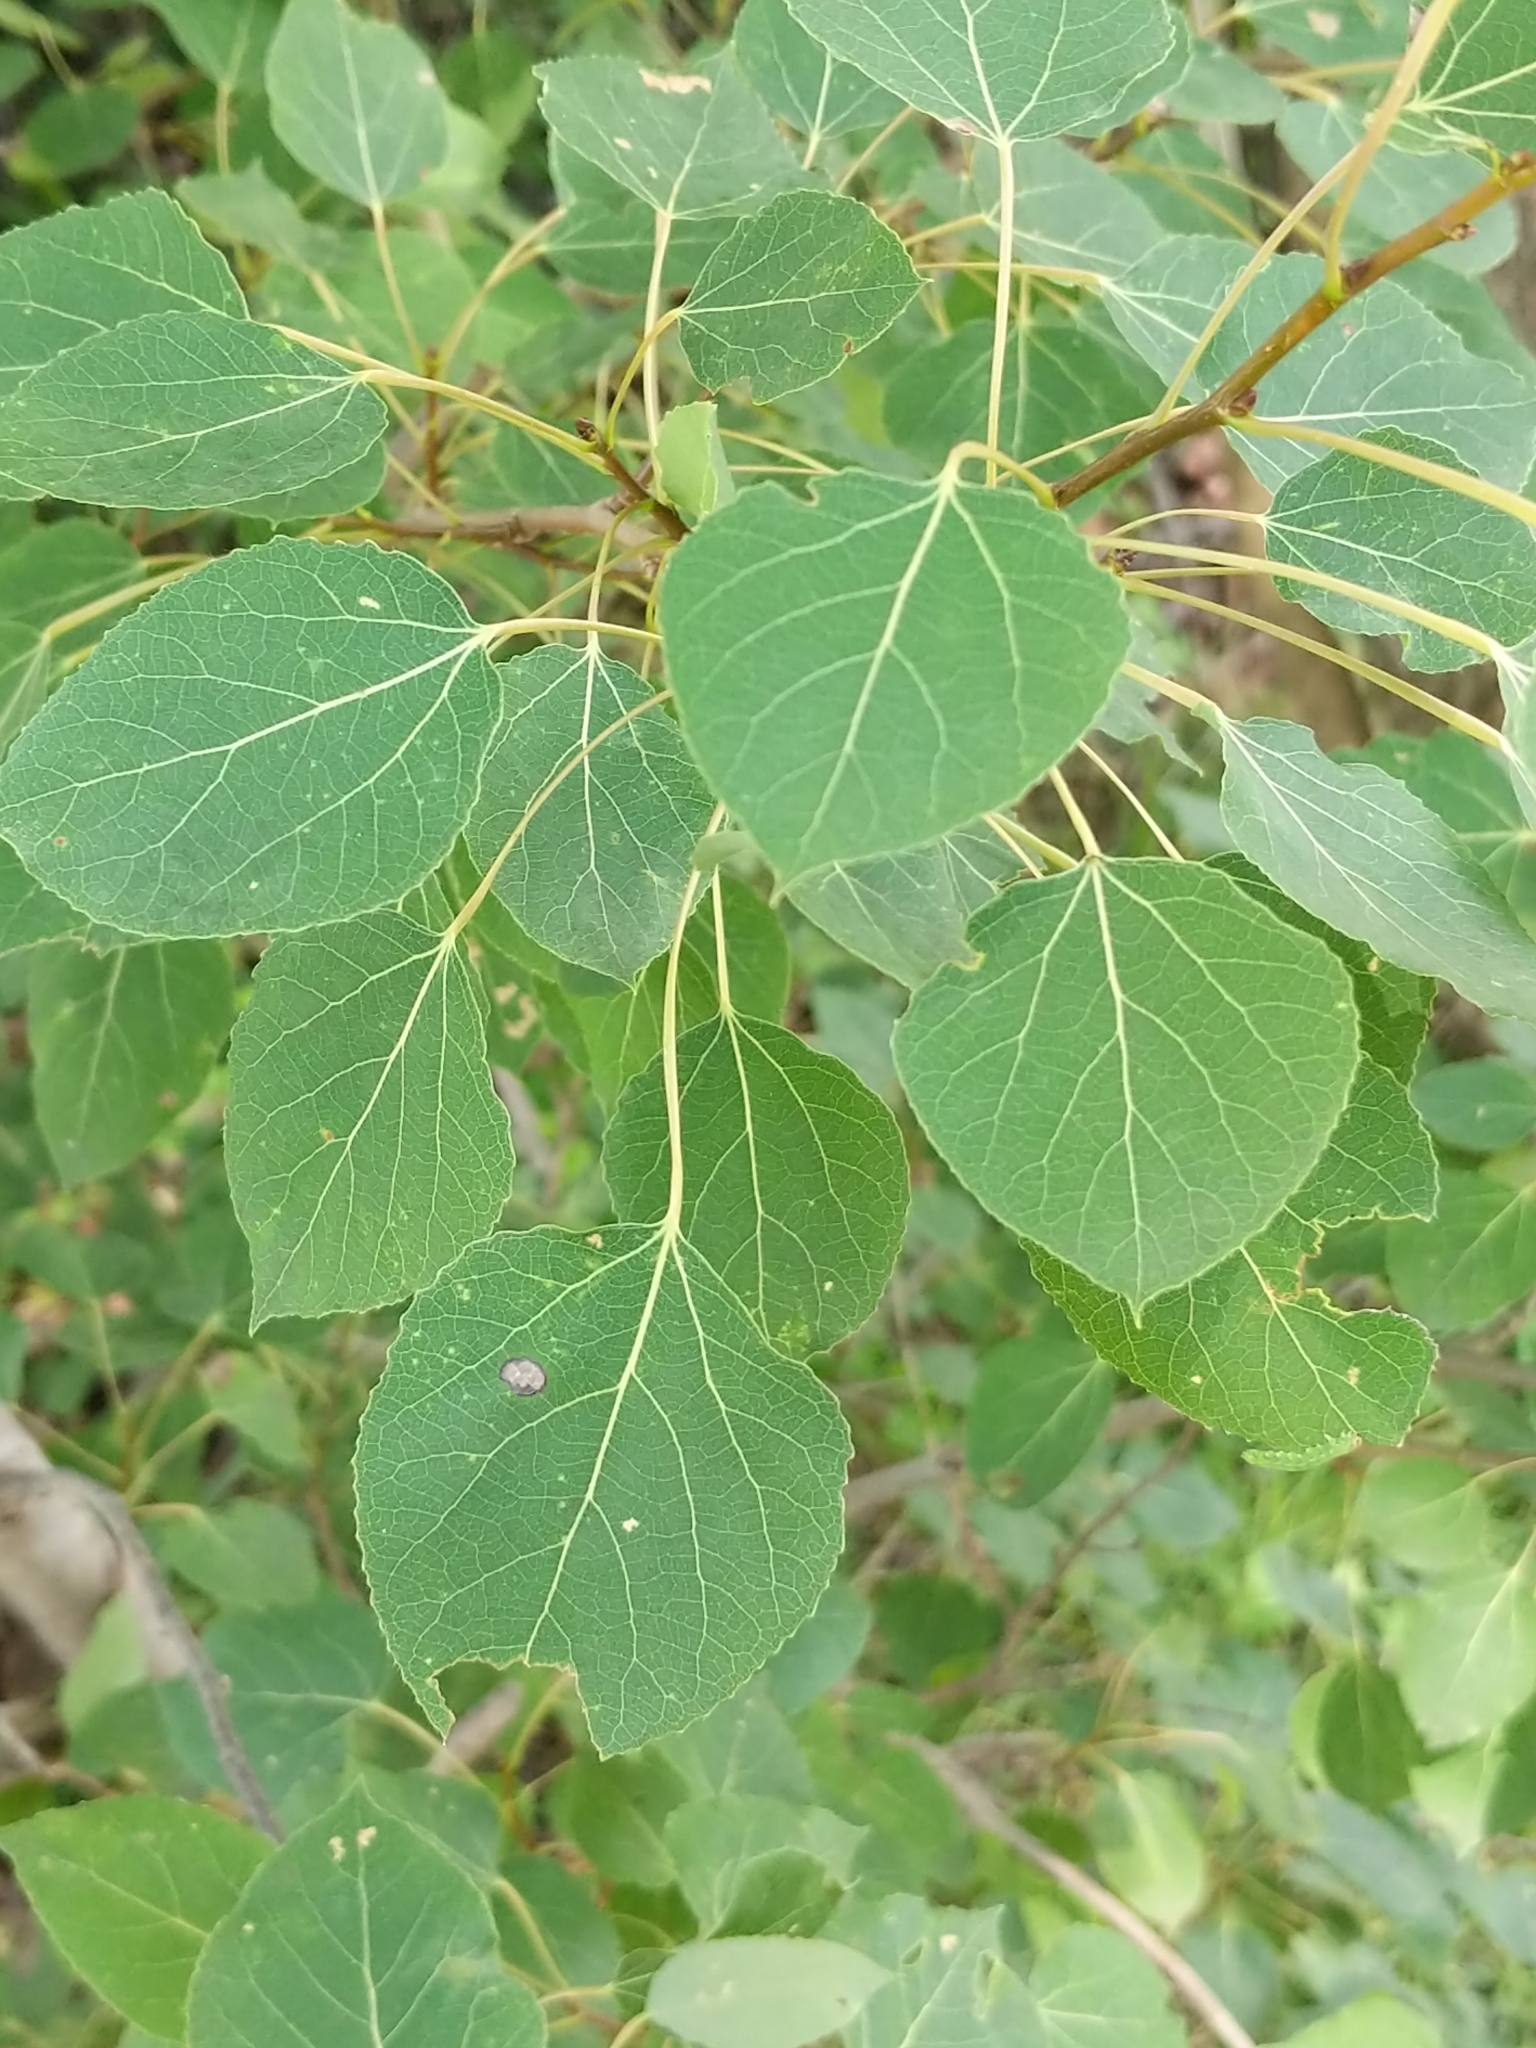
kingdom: Plantae
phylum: Tracheophyta
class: Magnoliopsida
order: Malpighiales
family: Salicaceae
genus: Populus
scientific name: Populus tremuloides
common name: Quaking aspen
